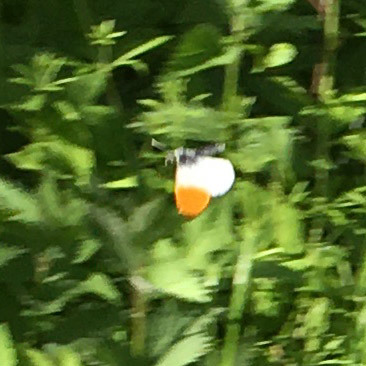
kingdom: Animalia
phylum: Arthropoda
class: Insecta
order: Lepidoptera
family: Pieridae
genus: Anthocharis
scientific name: Anthocharis cardamines
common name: Orange-tip
